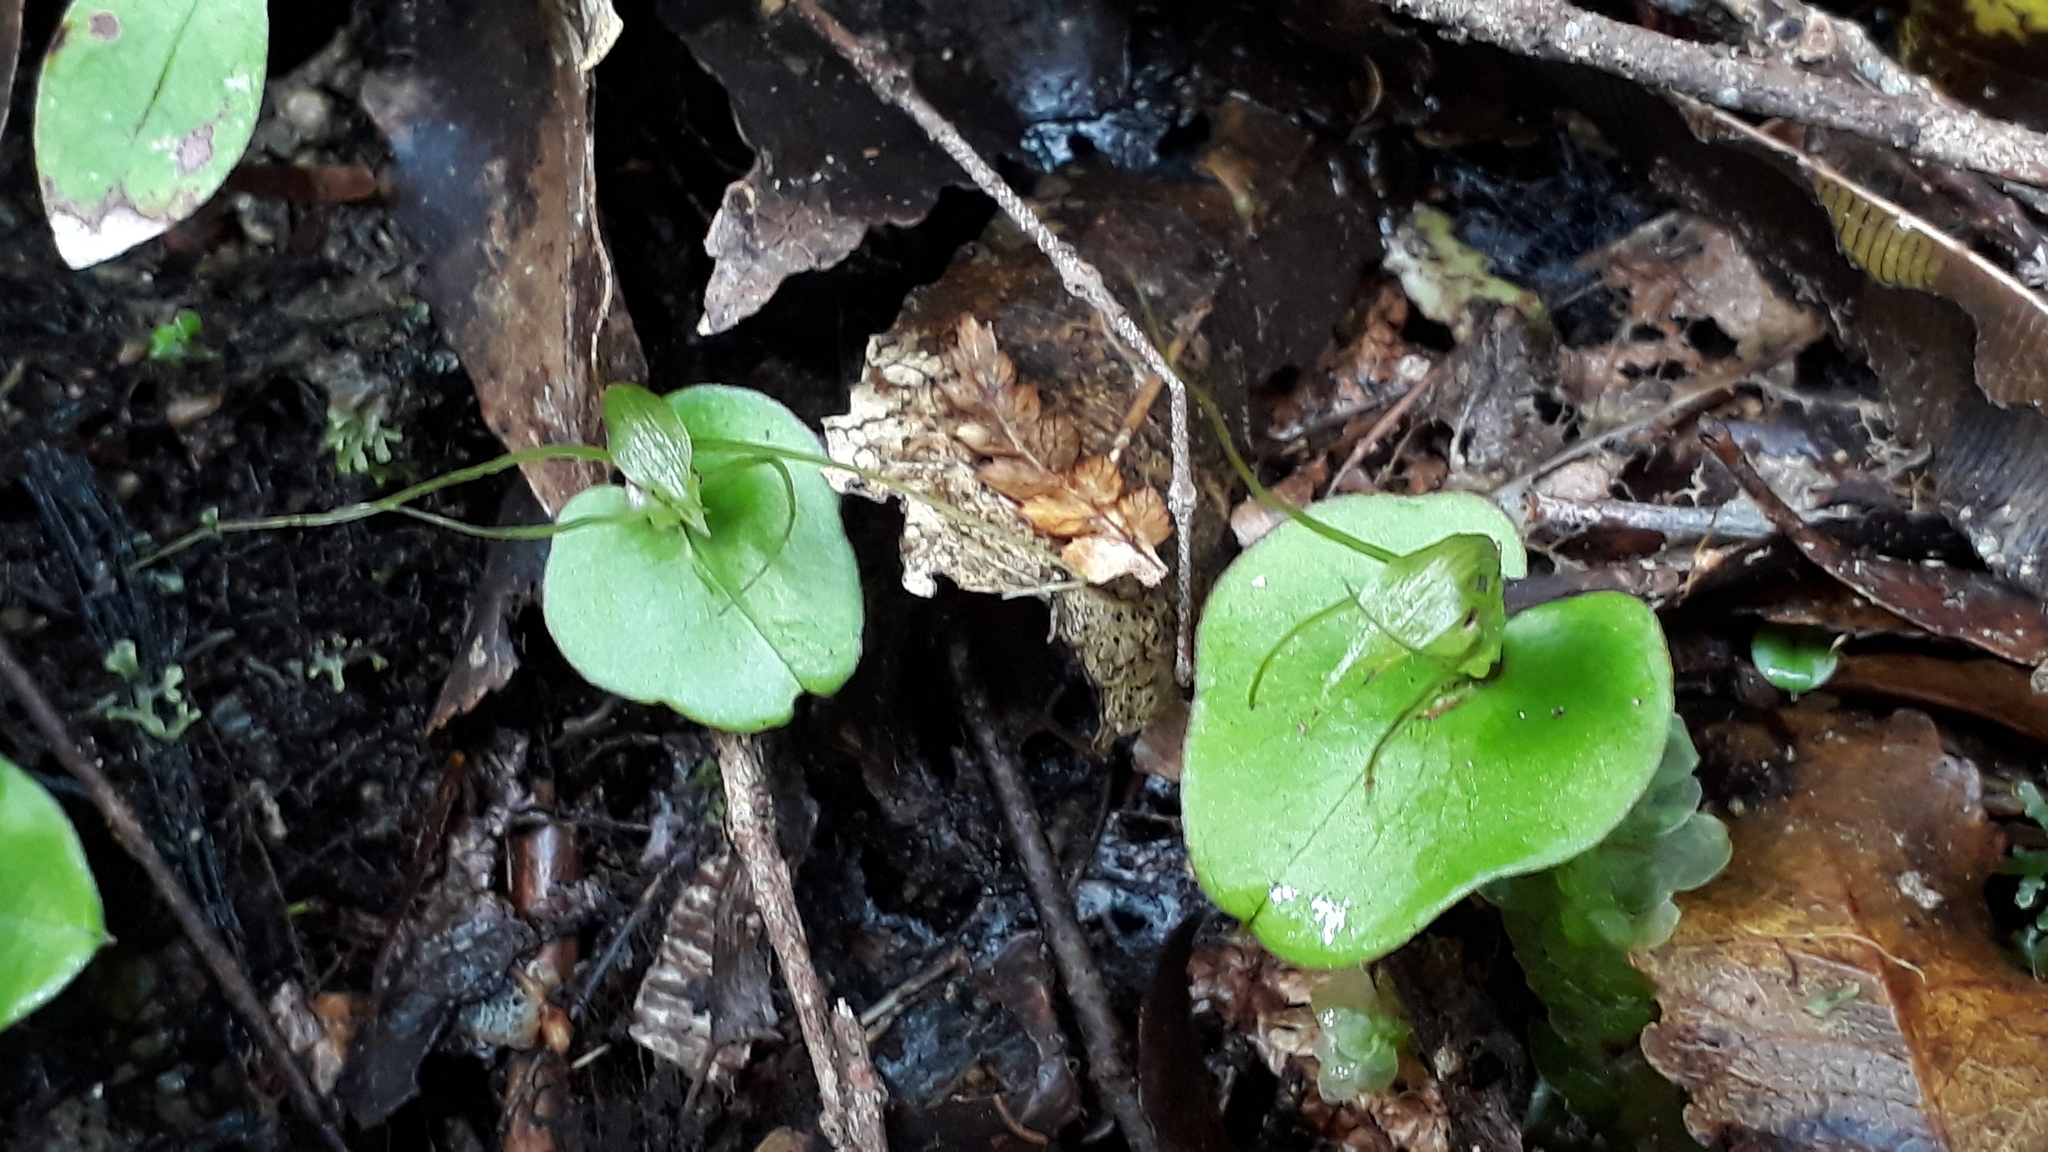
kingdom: Plantae
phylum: Tracheophyta
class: Liliopsida
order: Asparagales
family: Orchidaceae
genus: Corybas
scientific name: Corybas dienemus
